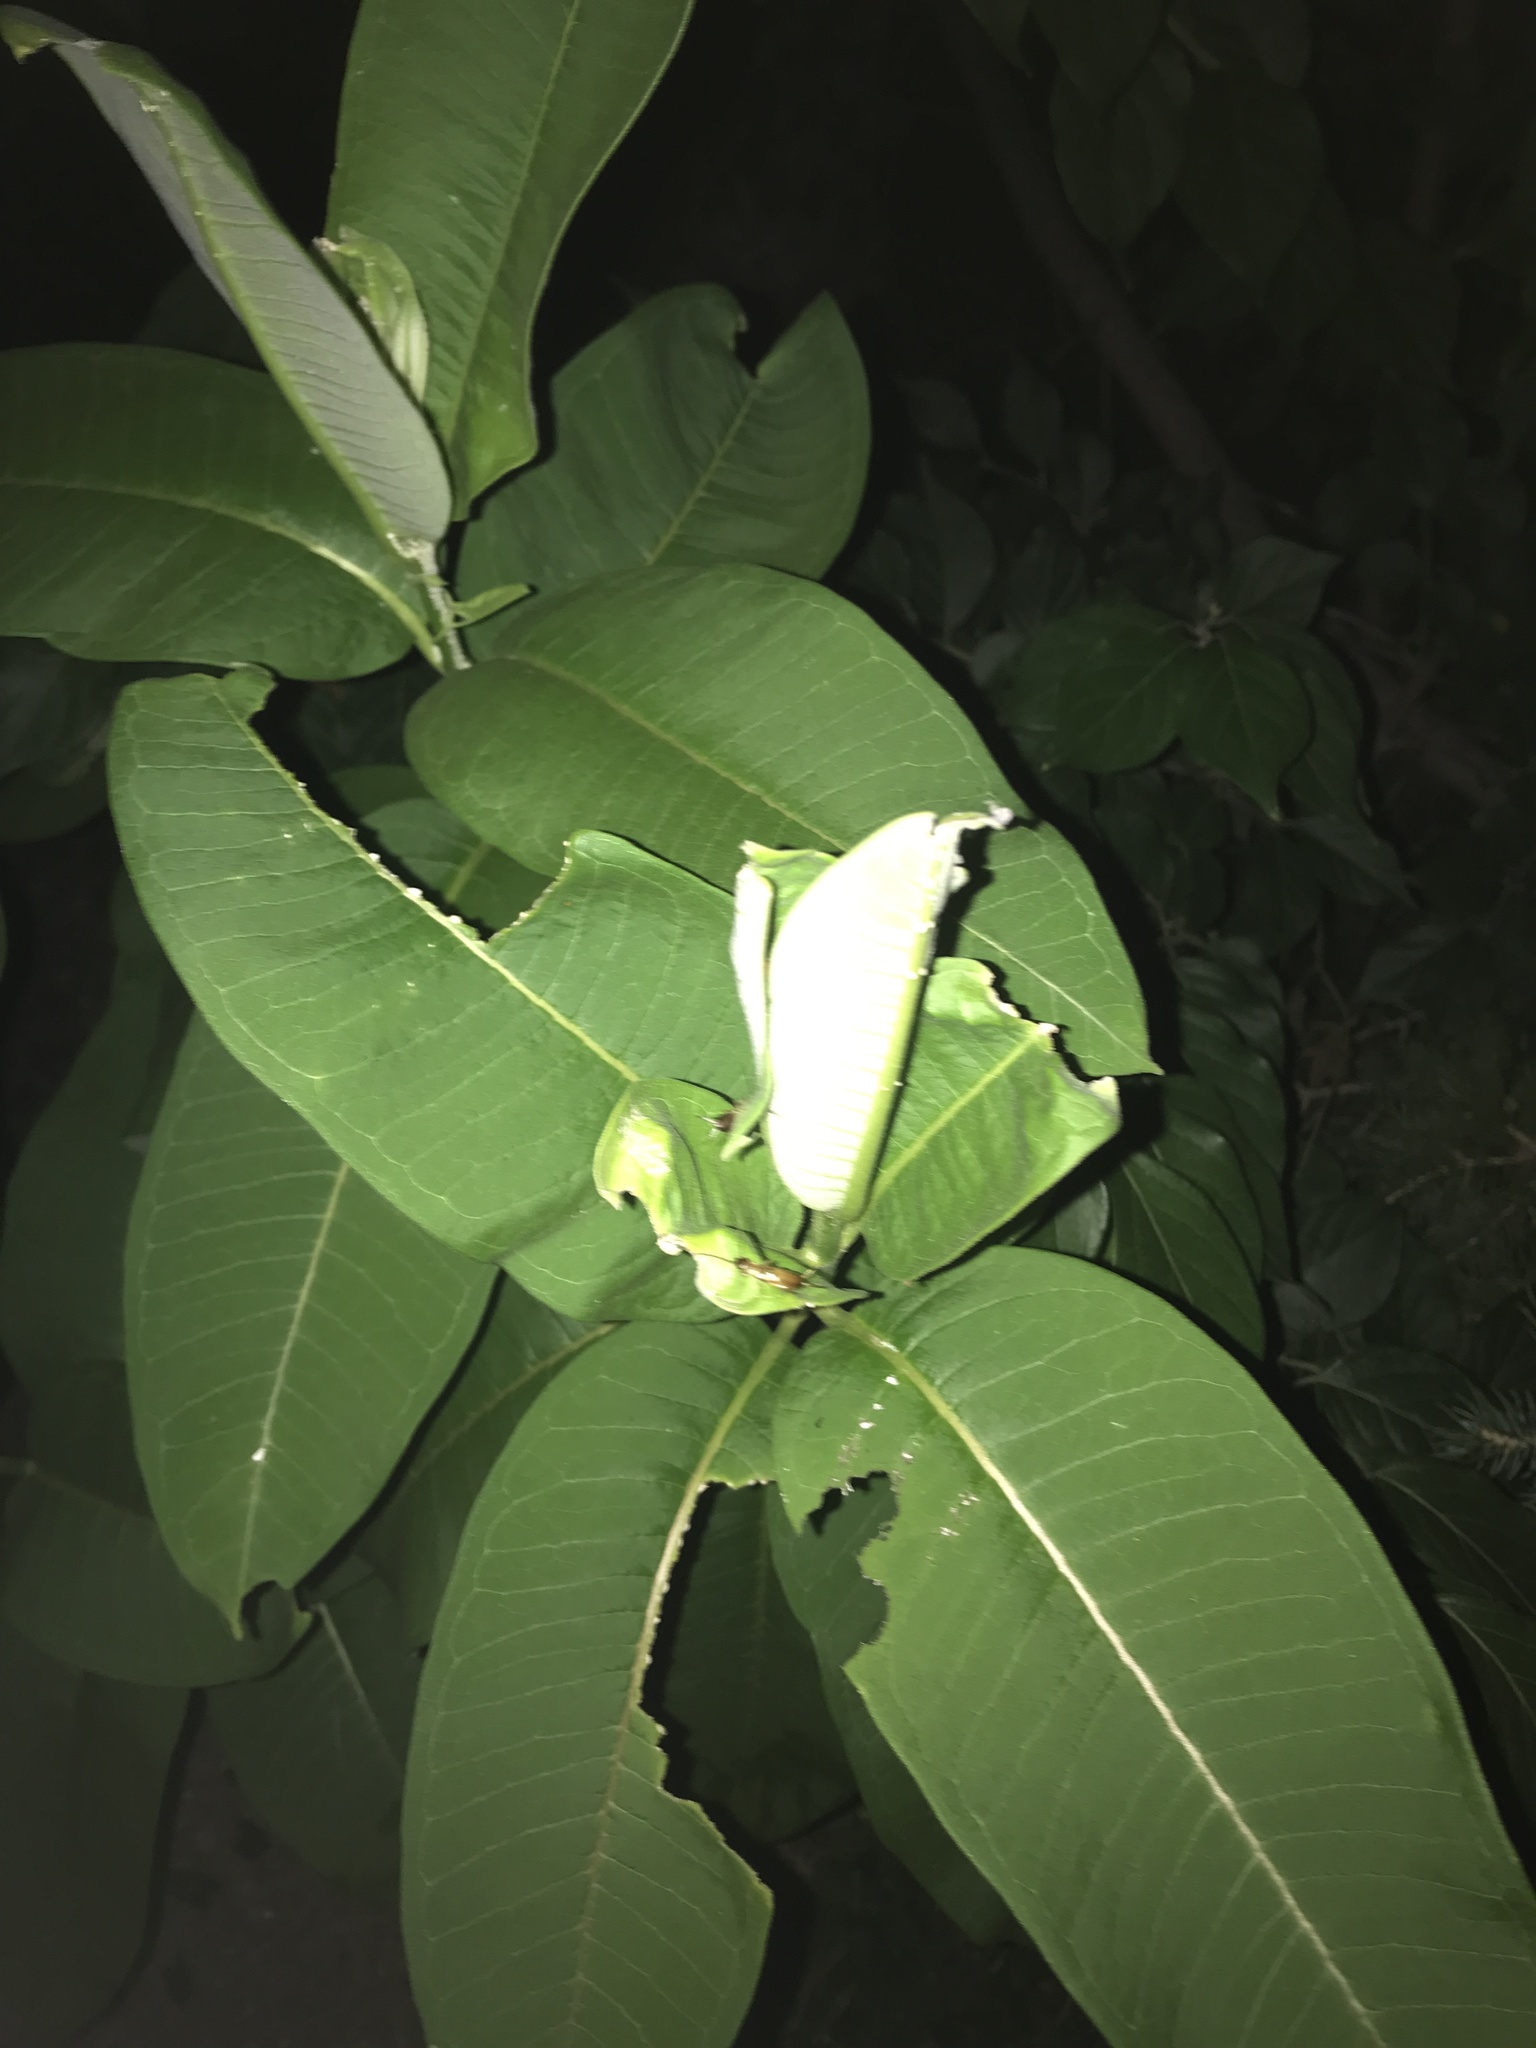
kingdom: Plantae
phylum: Tracheophyta
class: Magnoliopsida
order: Gentianales
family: Apocynaceae
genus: Asclepias
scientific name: Asclepias syriaca
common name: Common milkweed
